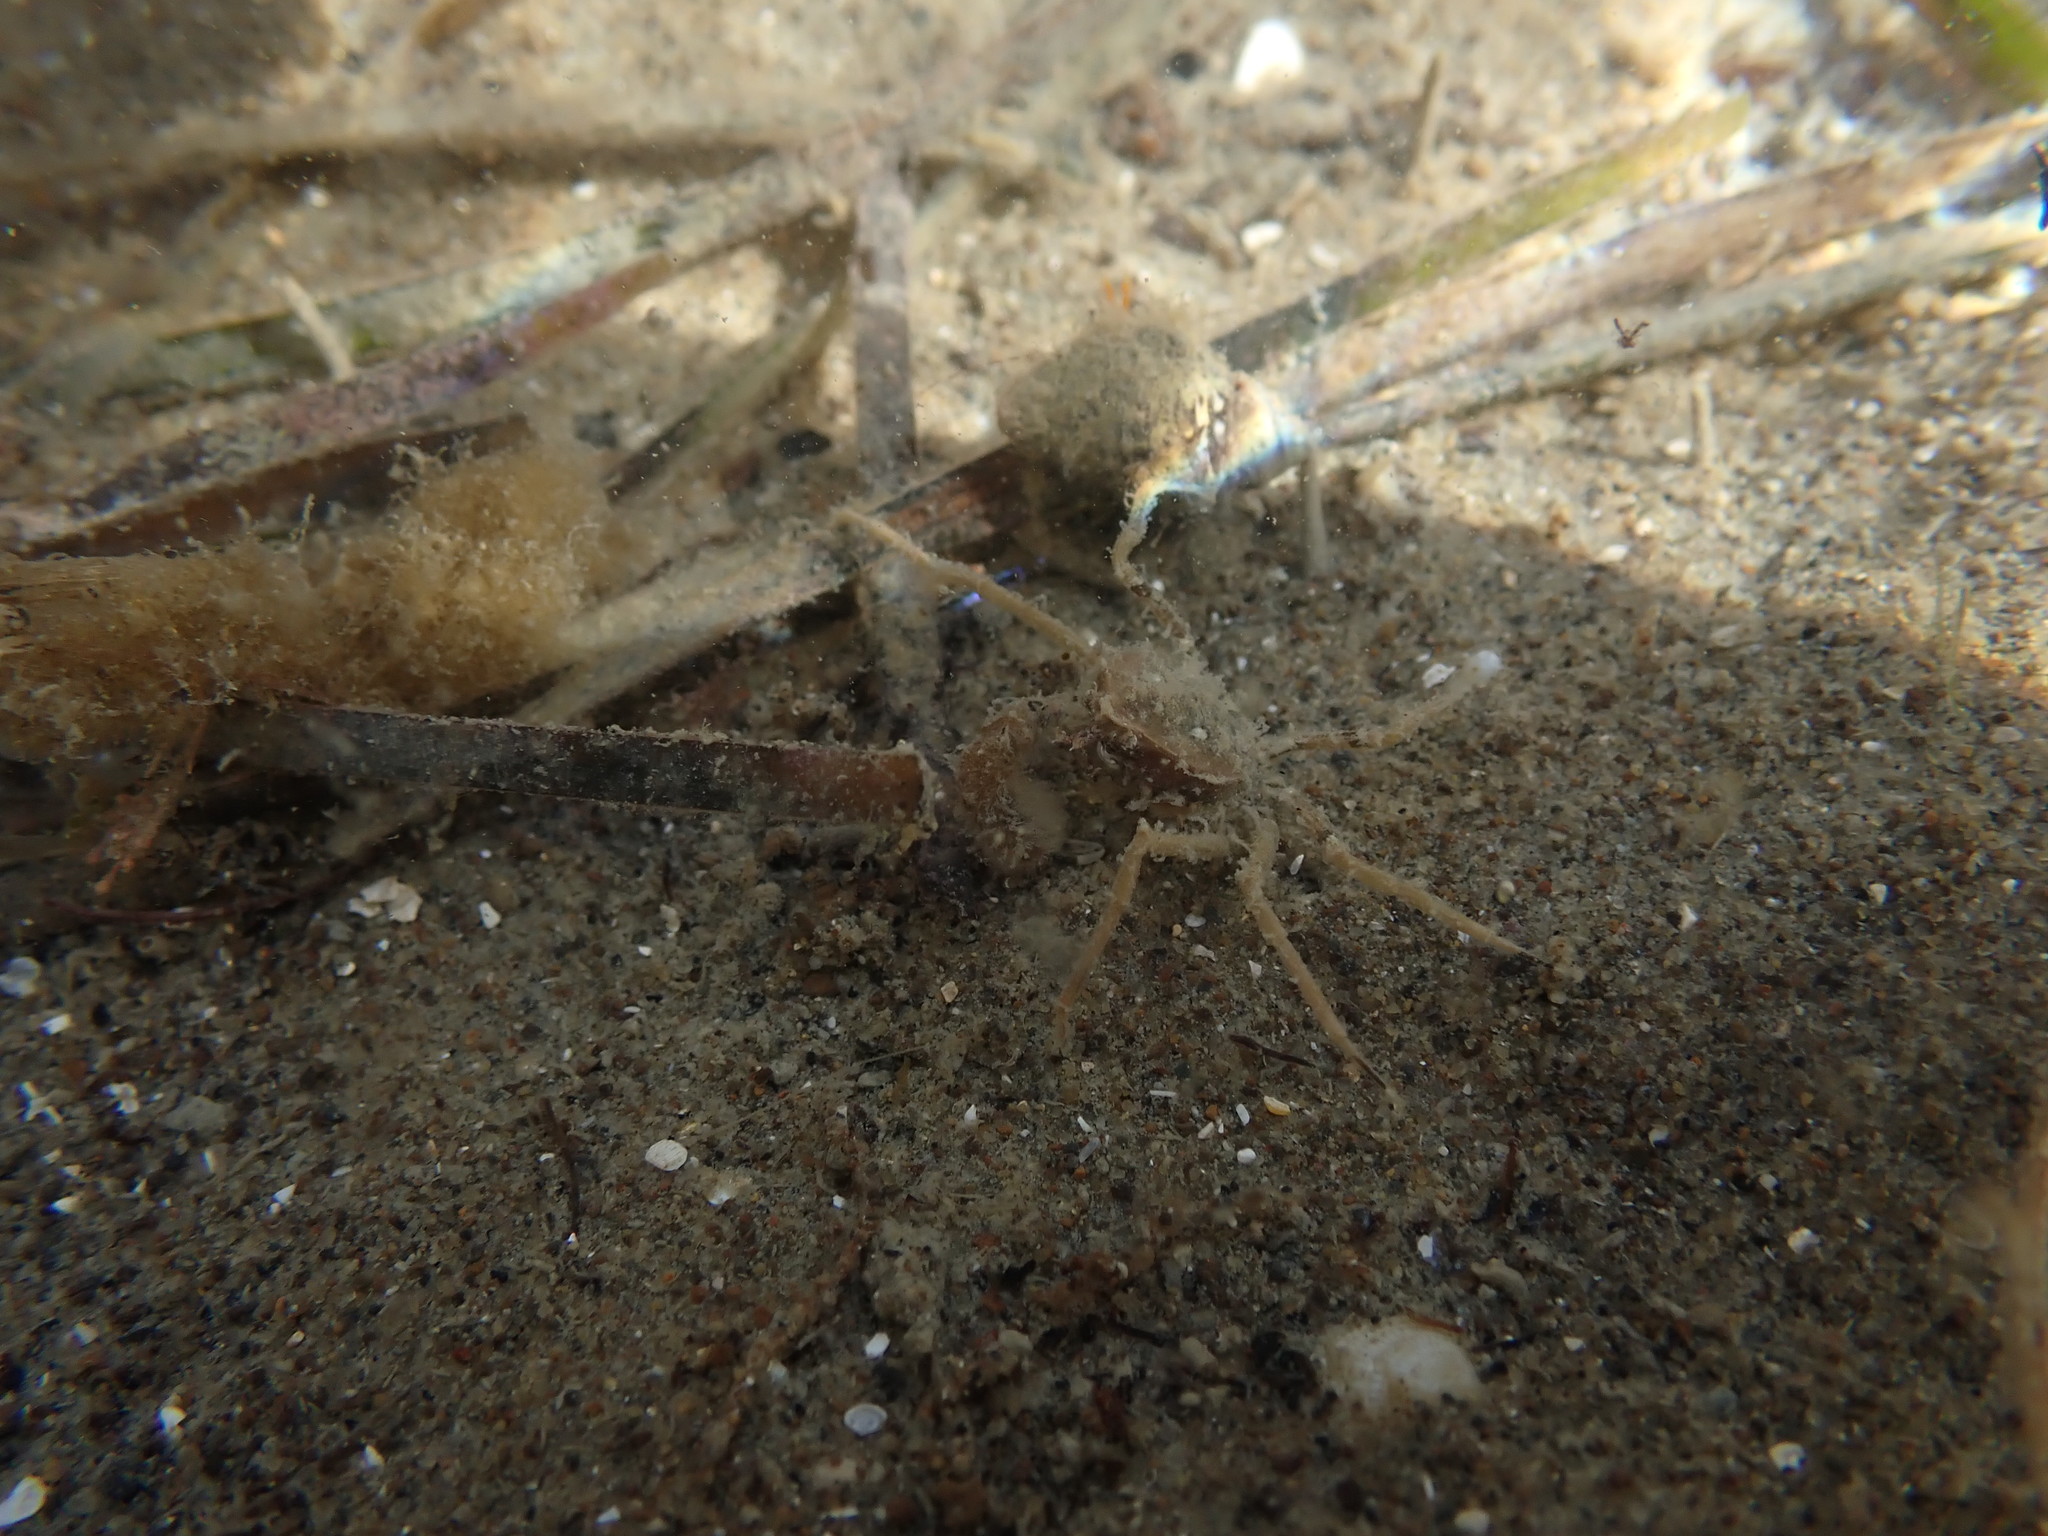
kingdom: Animalia
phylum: Arthropoda
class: Malacostraca
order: Decapoda
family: Hymenosomatidae
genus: Halicarcinus
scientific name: Halicarcinus whitei
